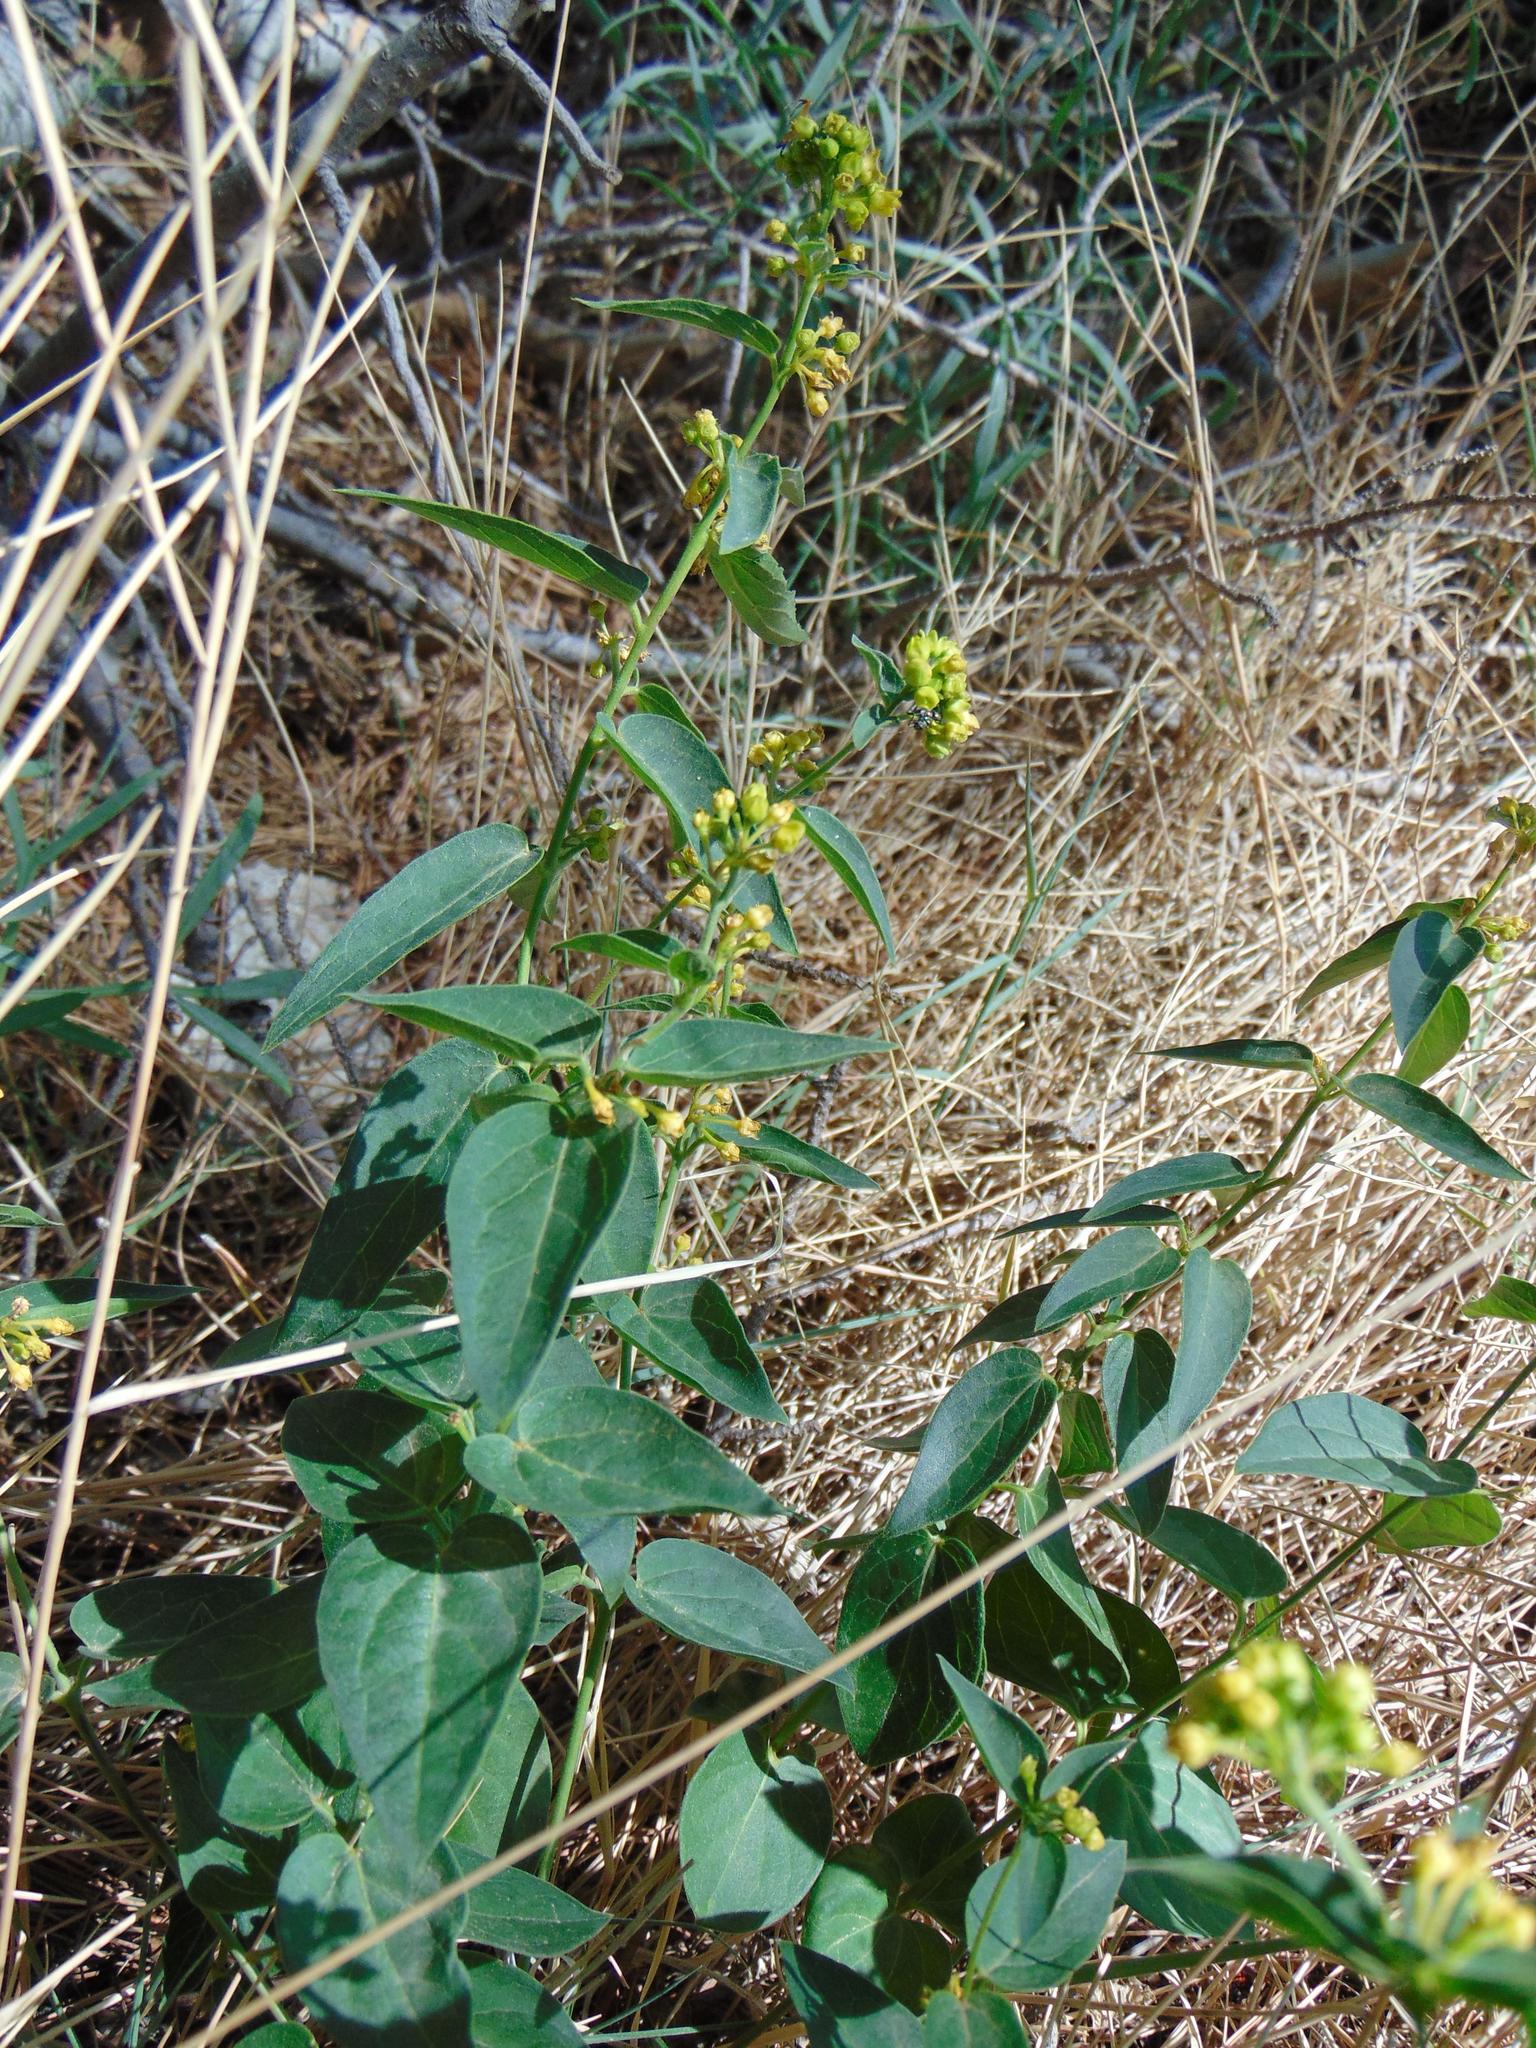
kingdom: Plantae
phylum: Tracheophyta
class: Magnoliopsida
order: Gentianales
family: Apocynaceae
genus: Vincetoxicum
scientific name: Vincetoxicum hirundinaria
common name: White swallowwort
